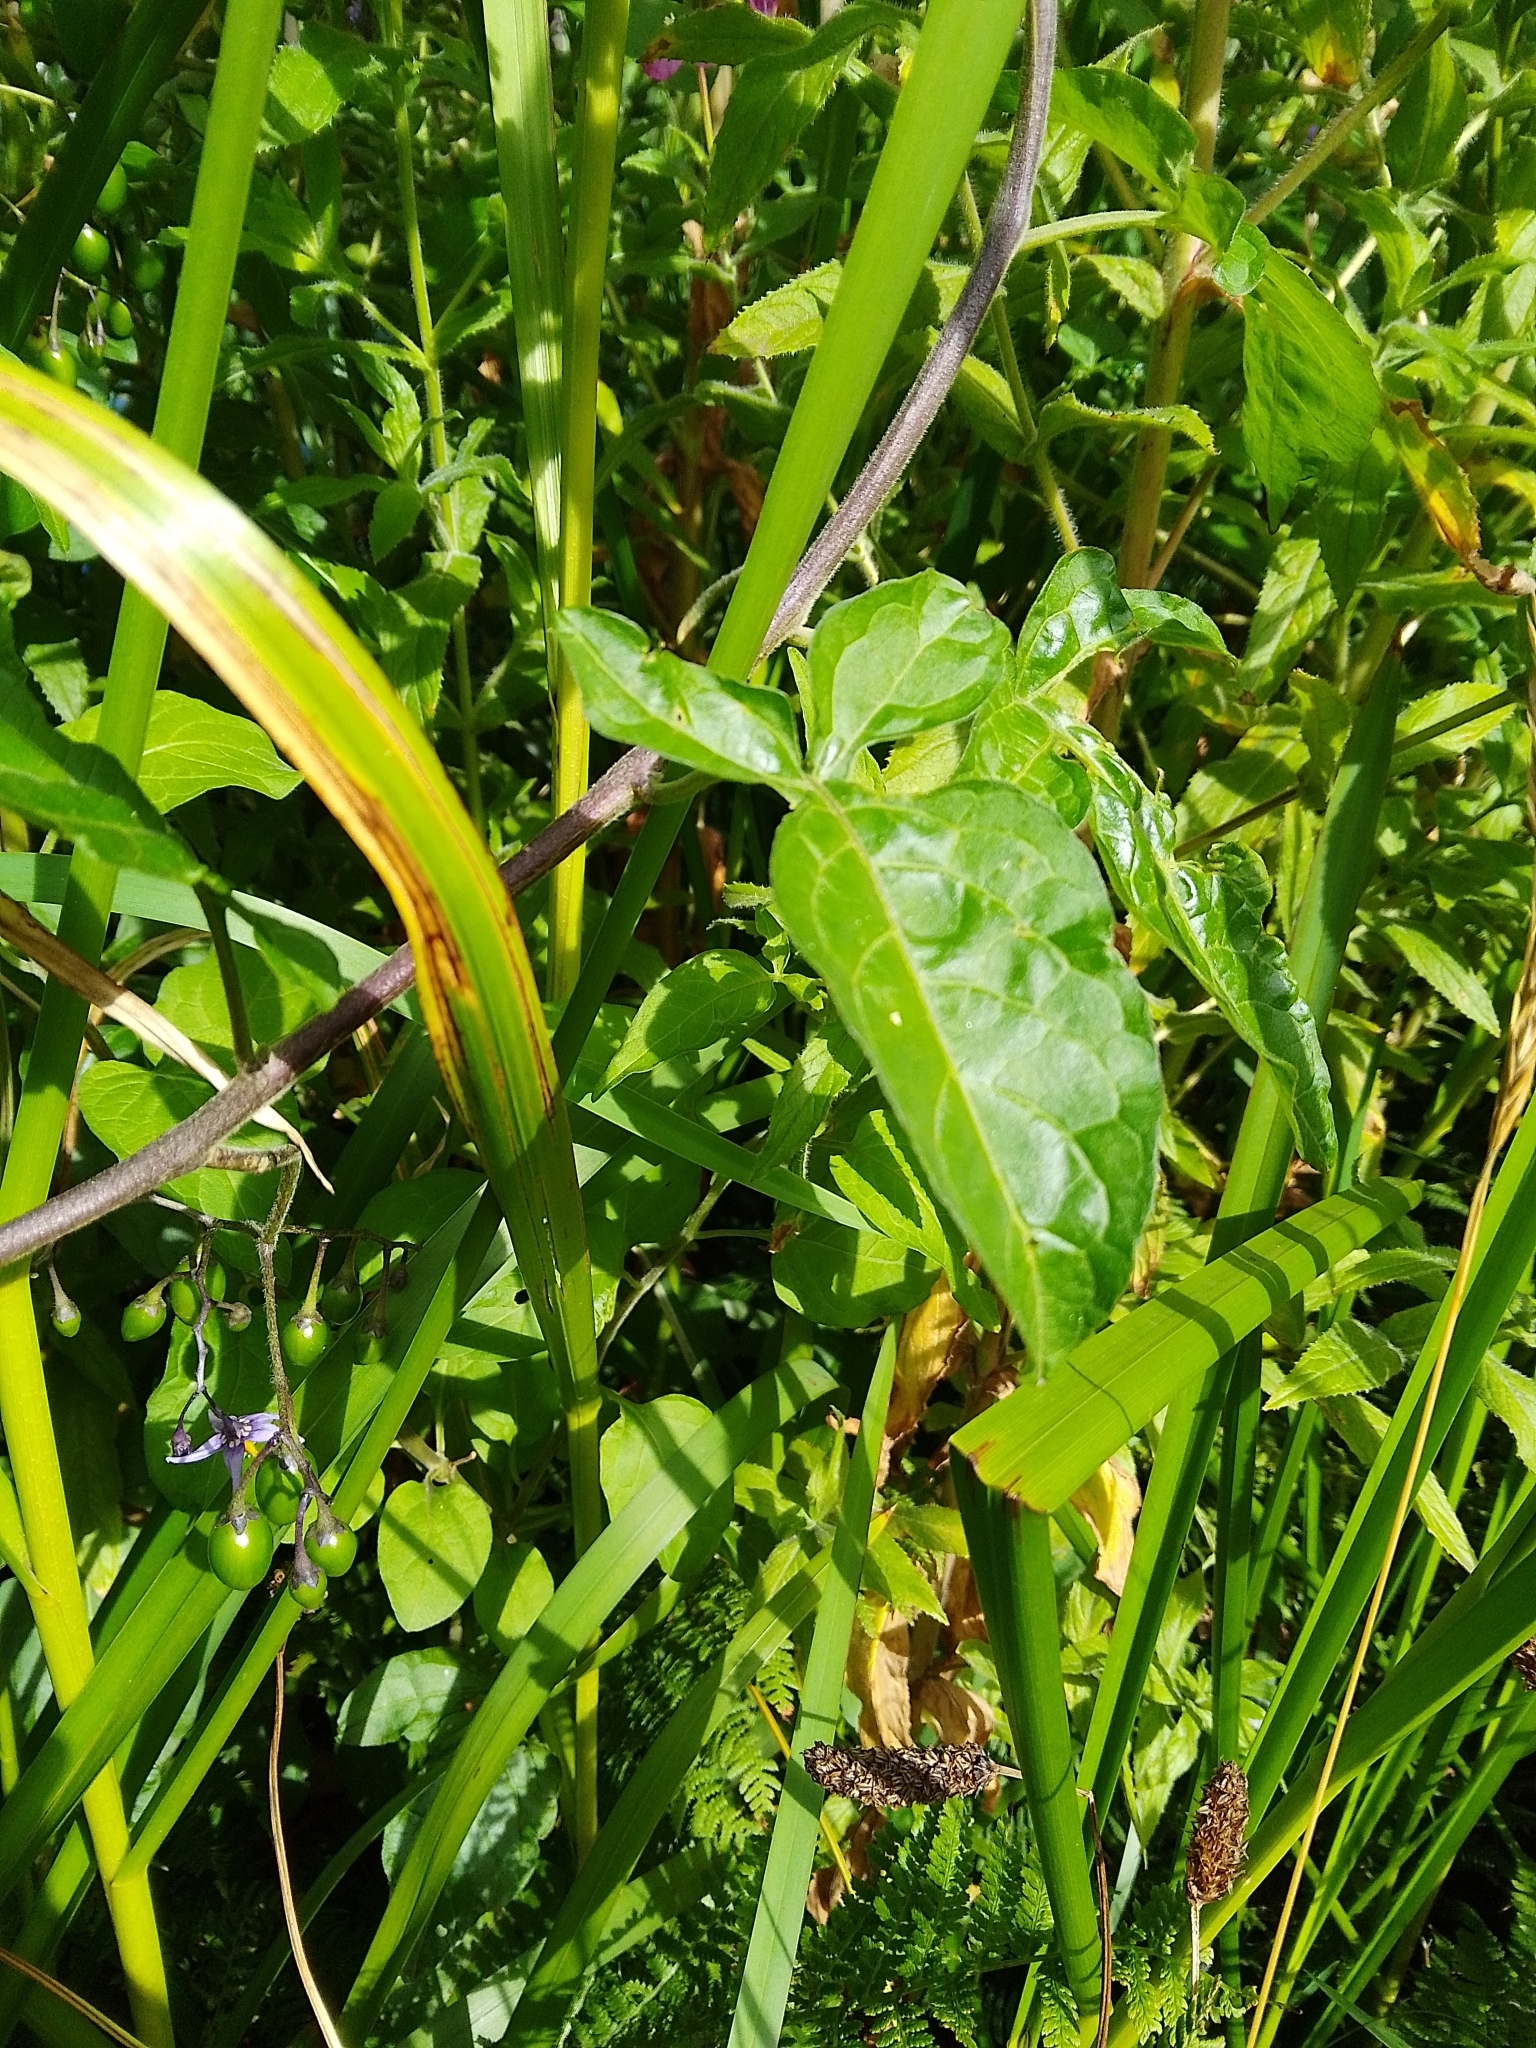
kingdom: Plantae
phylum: Tracheophyta
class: Magnoliopsida
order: Solanales
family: Solanaceae
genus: Solanum
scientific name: Solanum dulcamara
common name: Climbing nightshade
